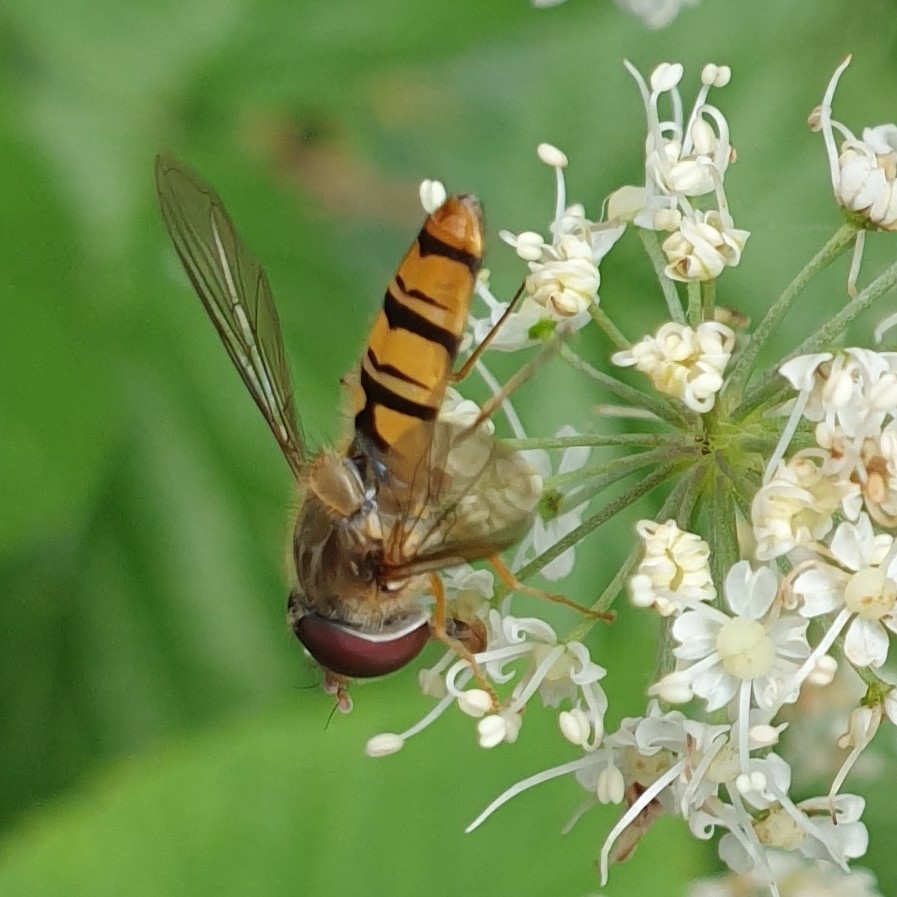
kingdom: Animalia
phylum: Arthropoda
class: Insecta
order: Diptera
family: Syrphidae
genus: Episyrphus
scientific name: Episyrphus balteatus
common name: Marmalade hoverfly
